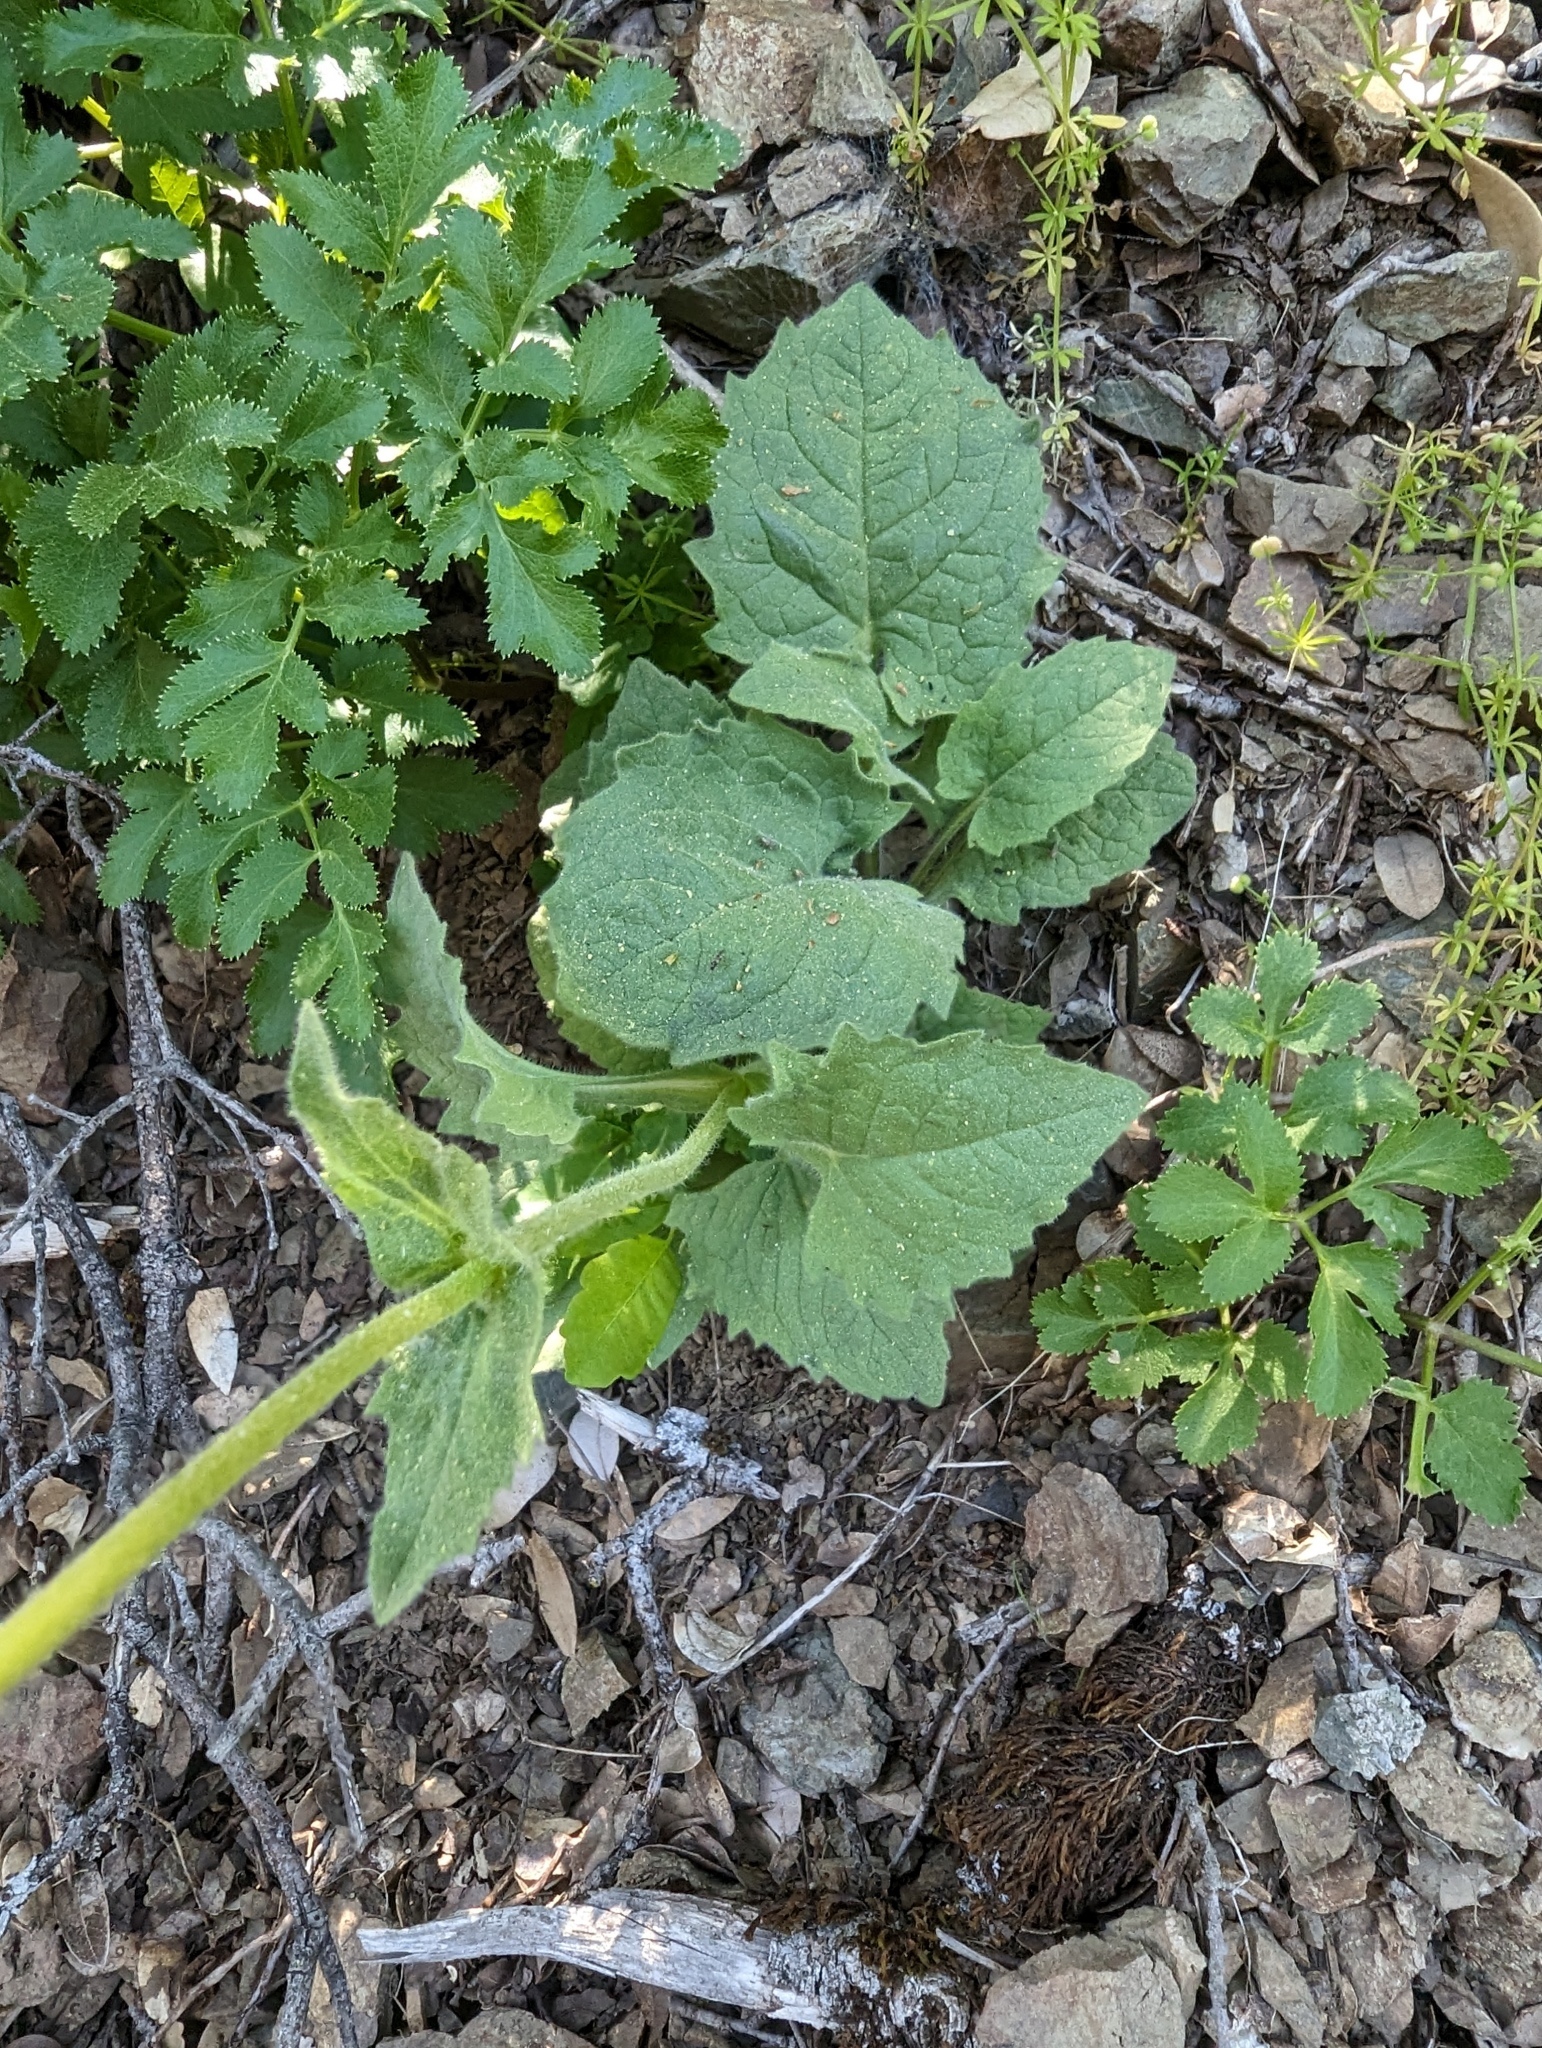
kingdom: Plantae
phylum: Tracheophyta
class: Magnoliopsida
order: Asterales
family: Asteraceae
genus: Arnica
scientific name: Arnica discoidea
